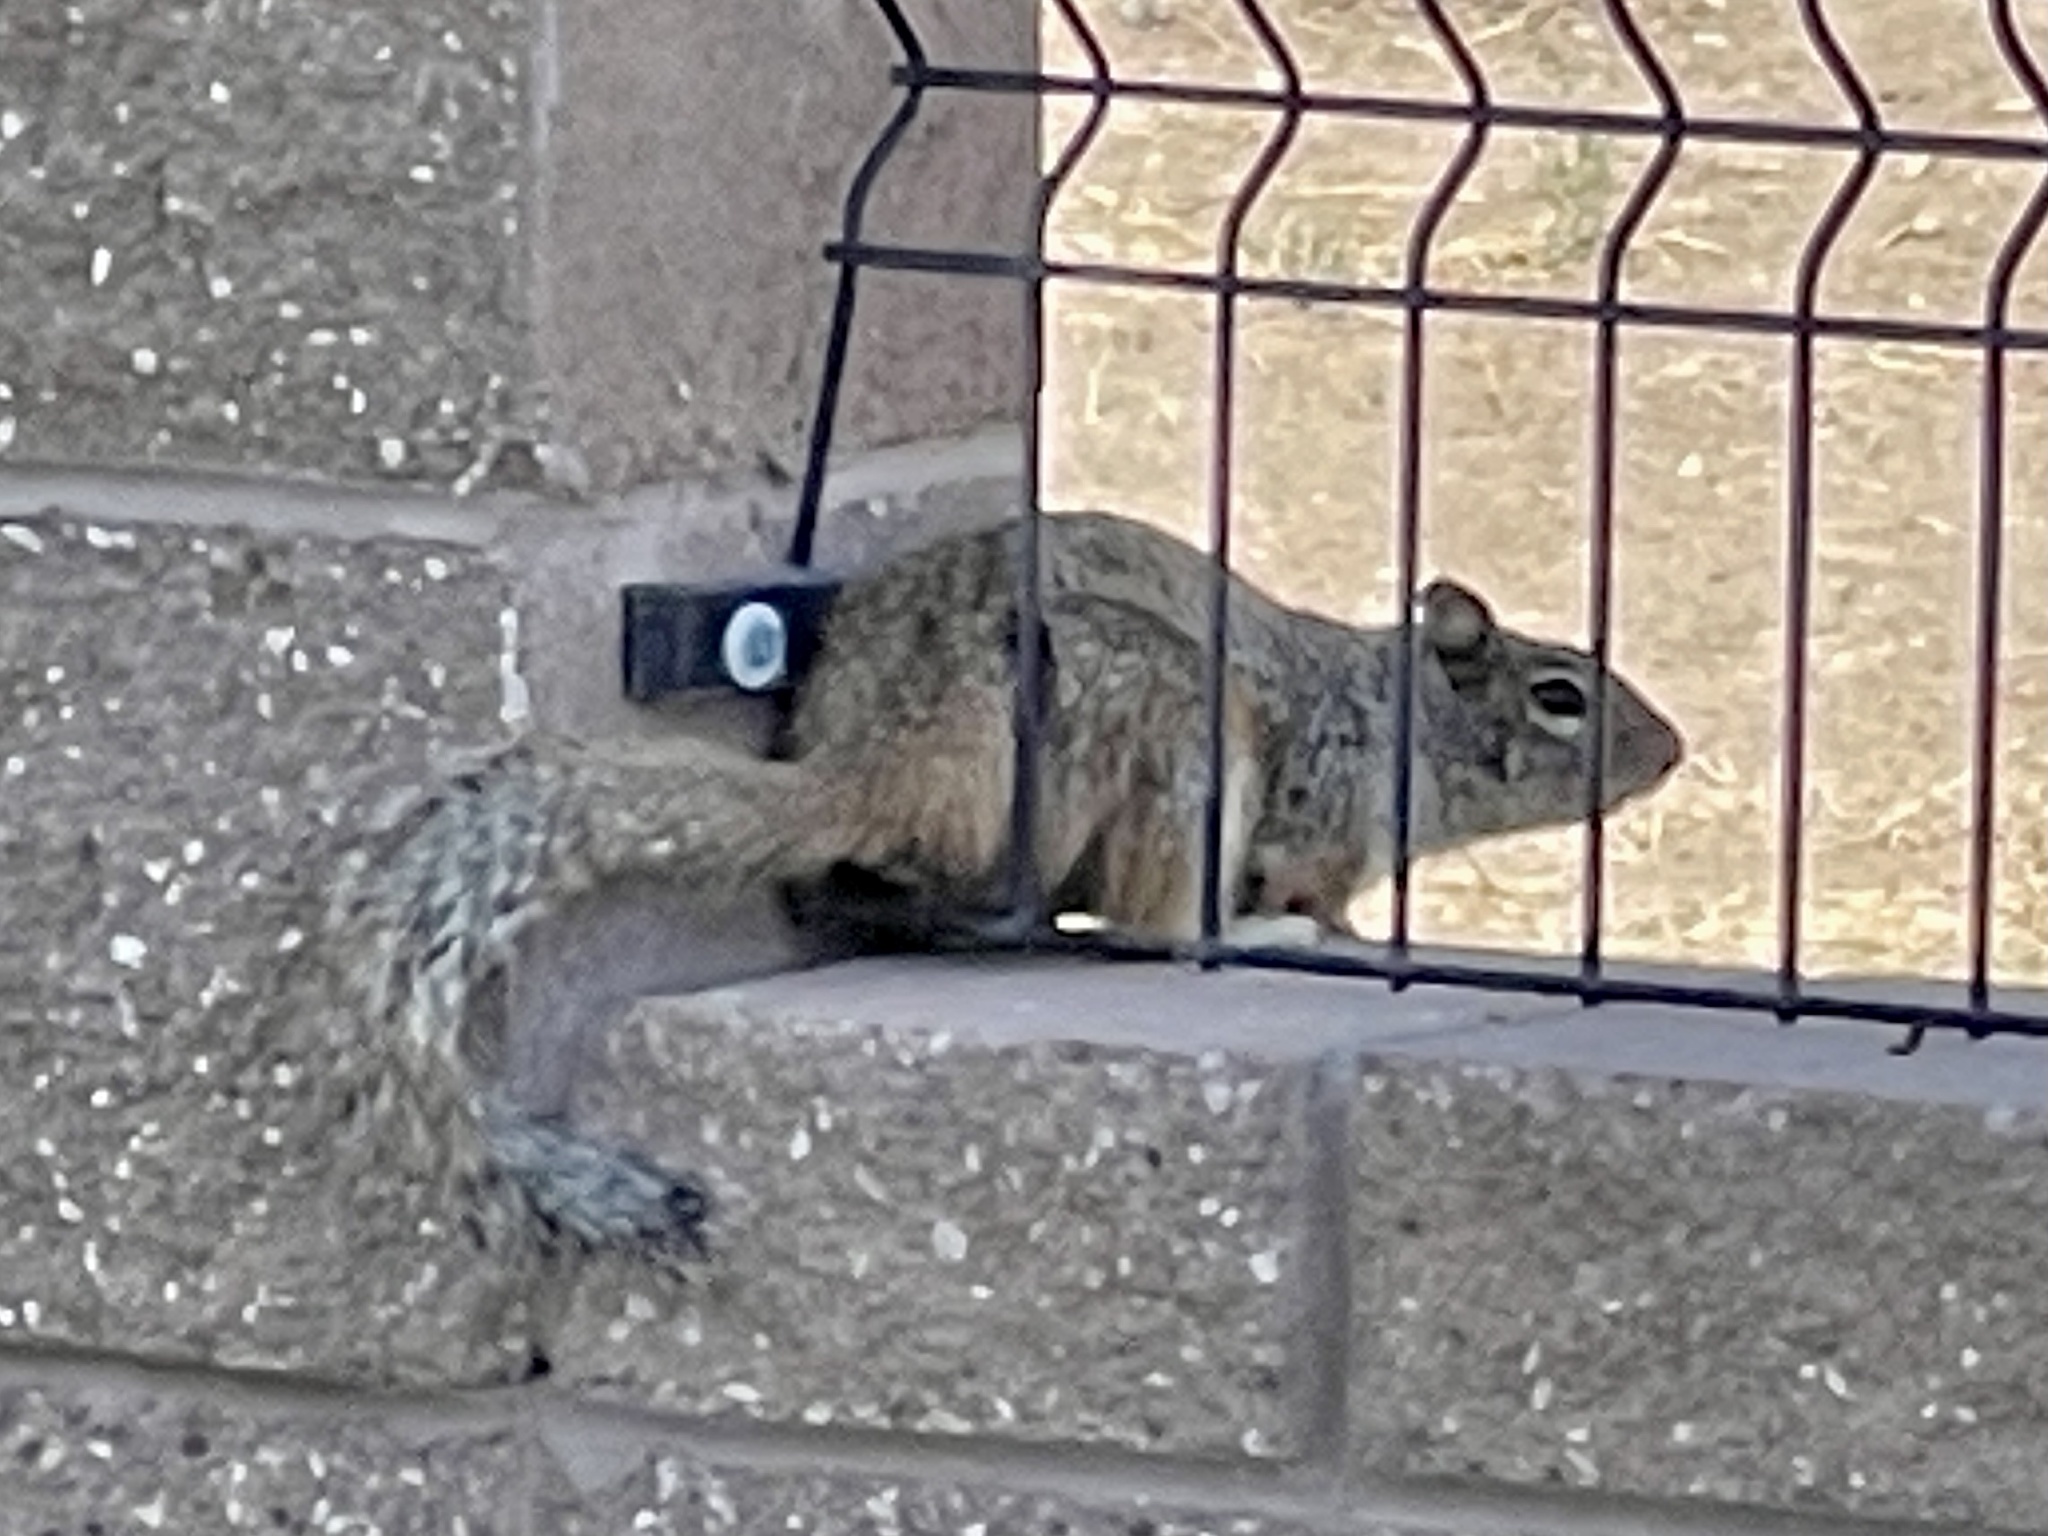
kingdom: Animalia
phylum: Chordata
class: Mammalia
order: Rodentia
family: Sciuridae
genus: Otospermophilus
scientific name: Otospermophilus variegatus
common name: Rock squirrel
